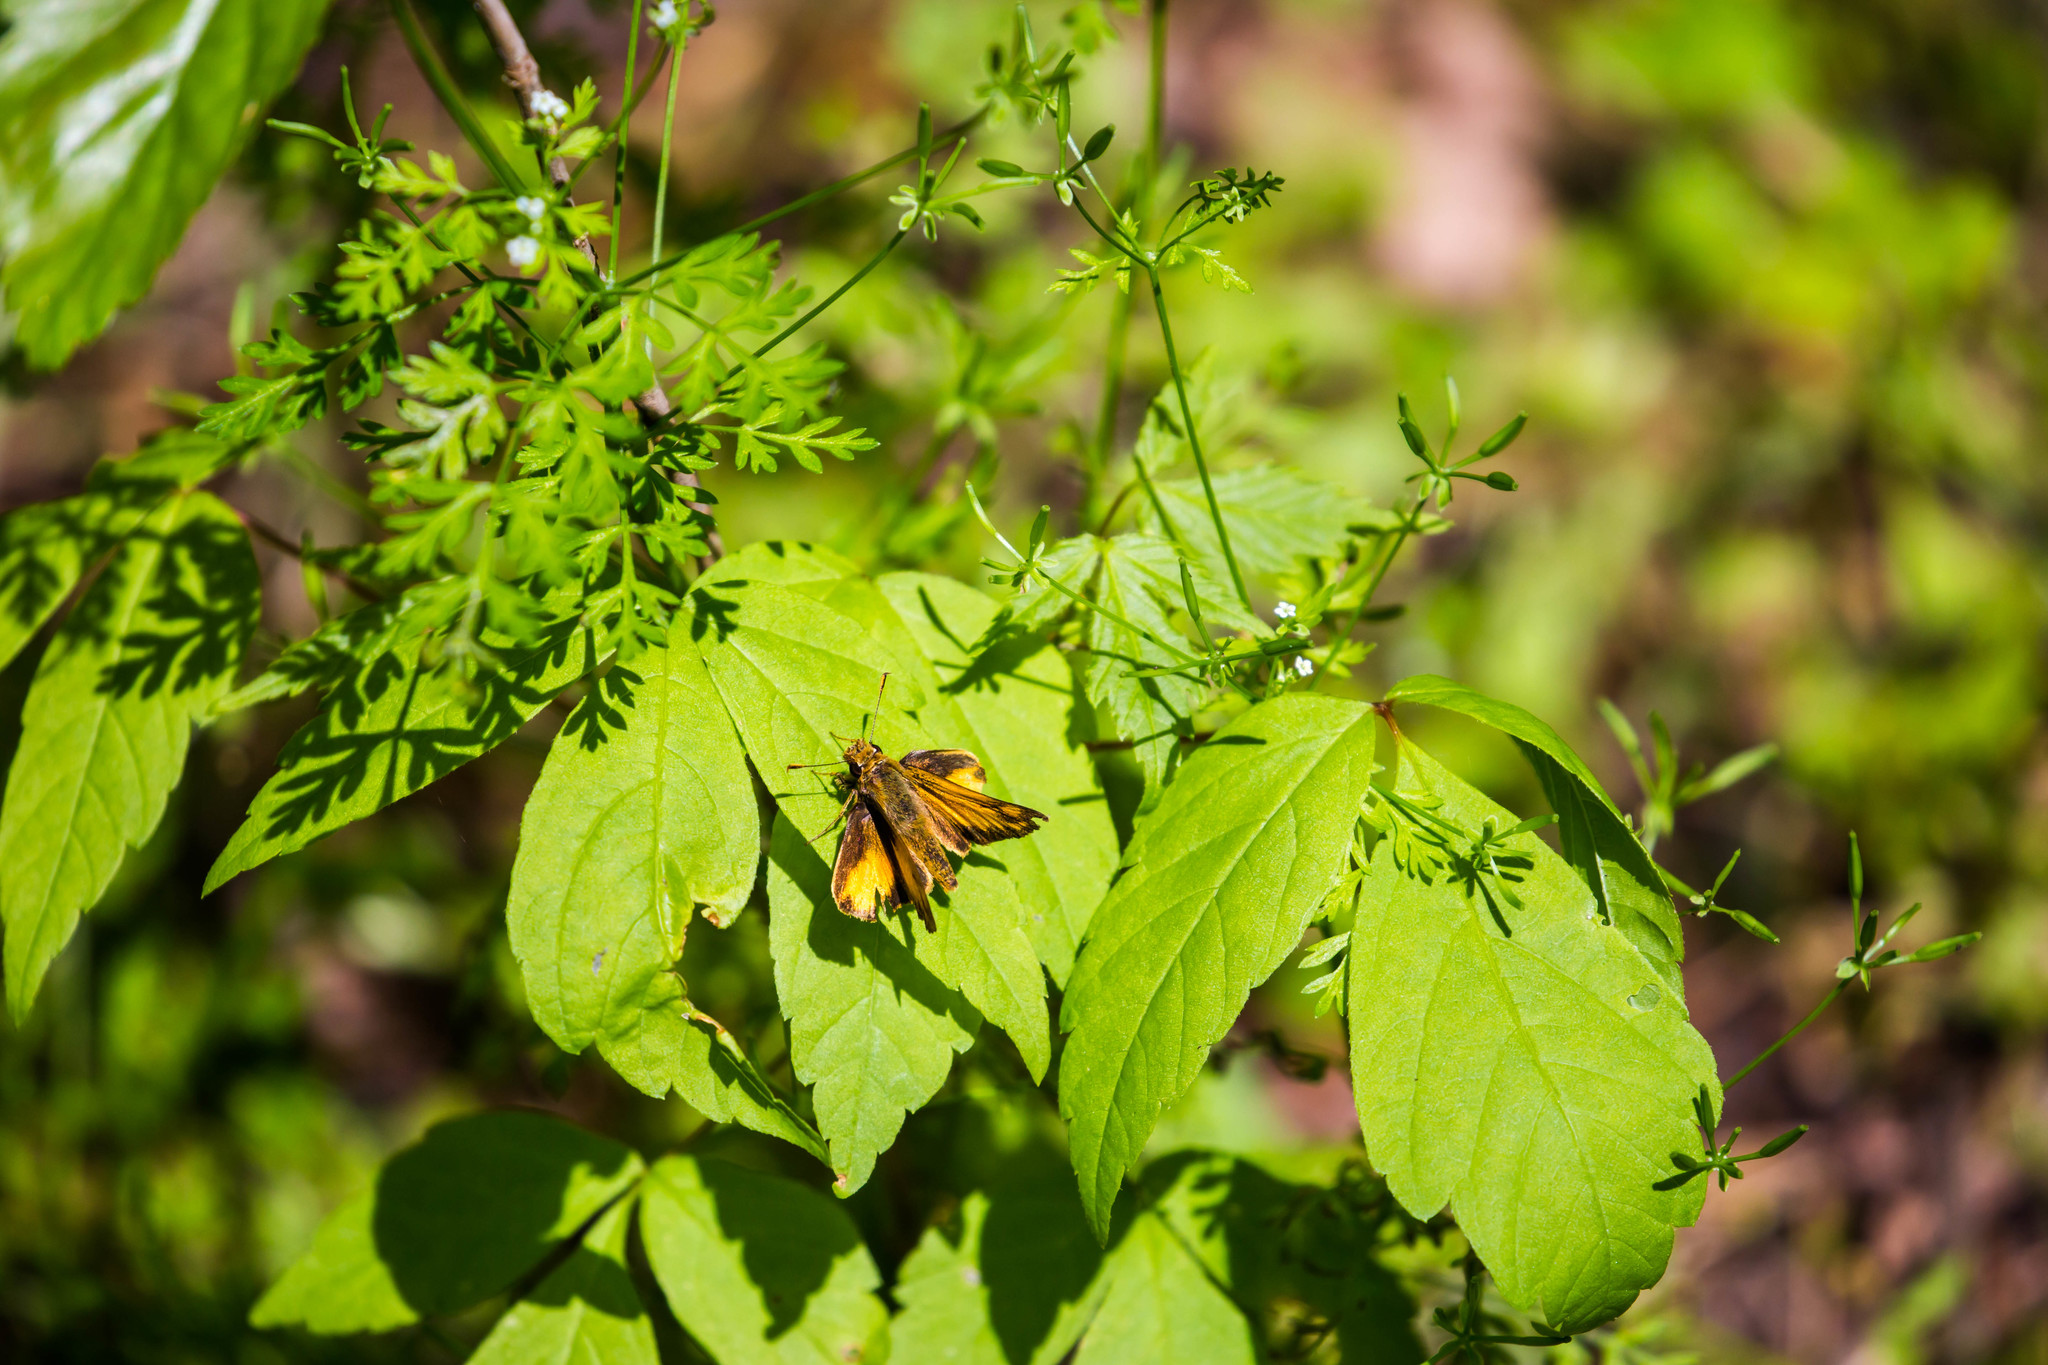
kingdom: Animalia
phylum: Arthropoda
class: Insecta
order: Lepidoptera
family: Hesperiidae
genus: Lon
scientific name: Lon zabulon
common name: Zabulon skipper
